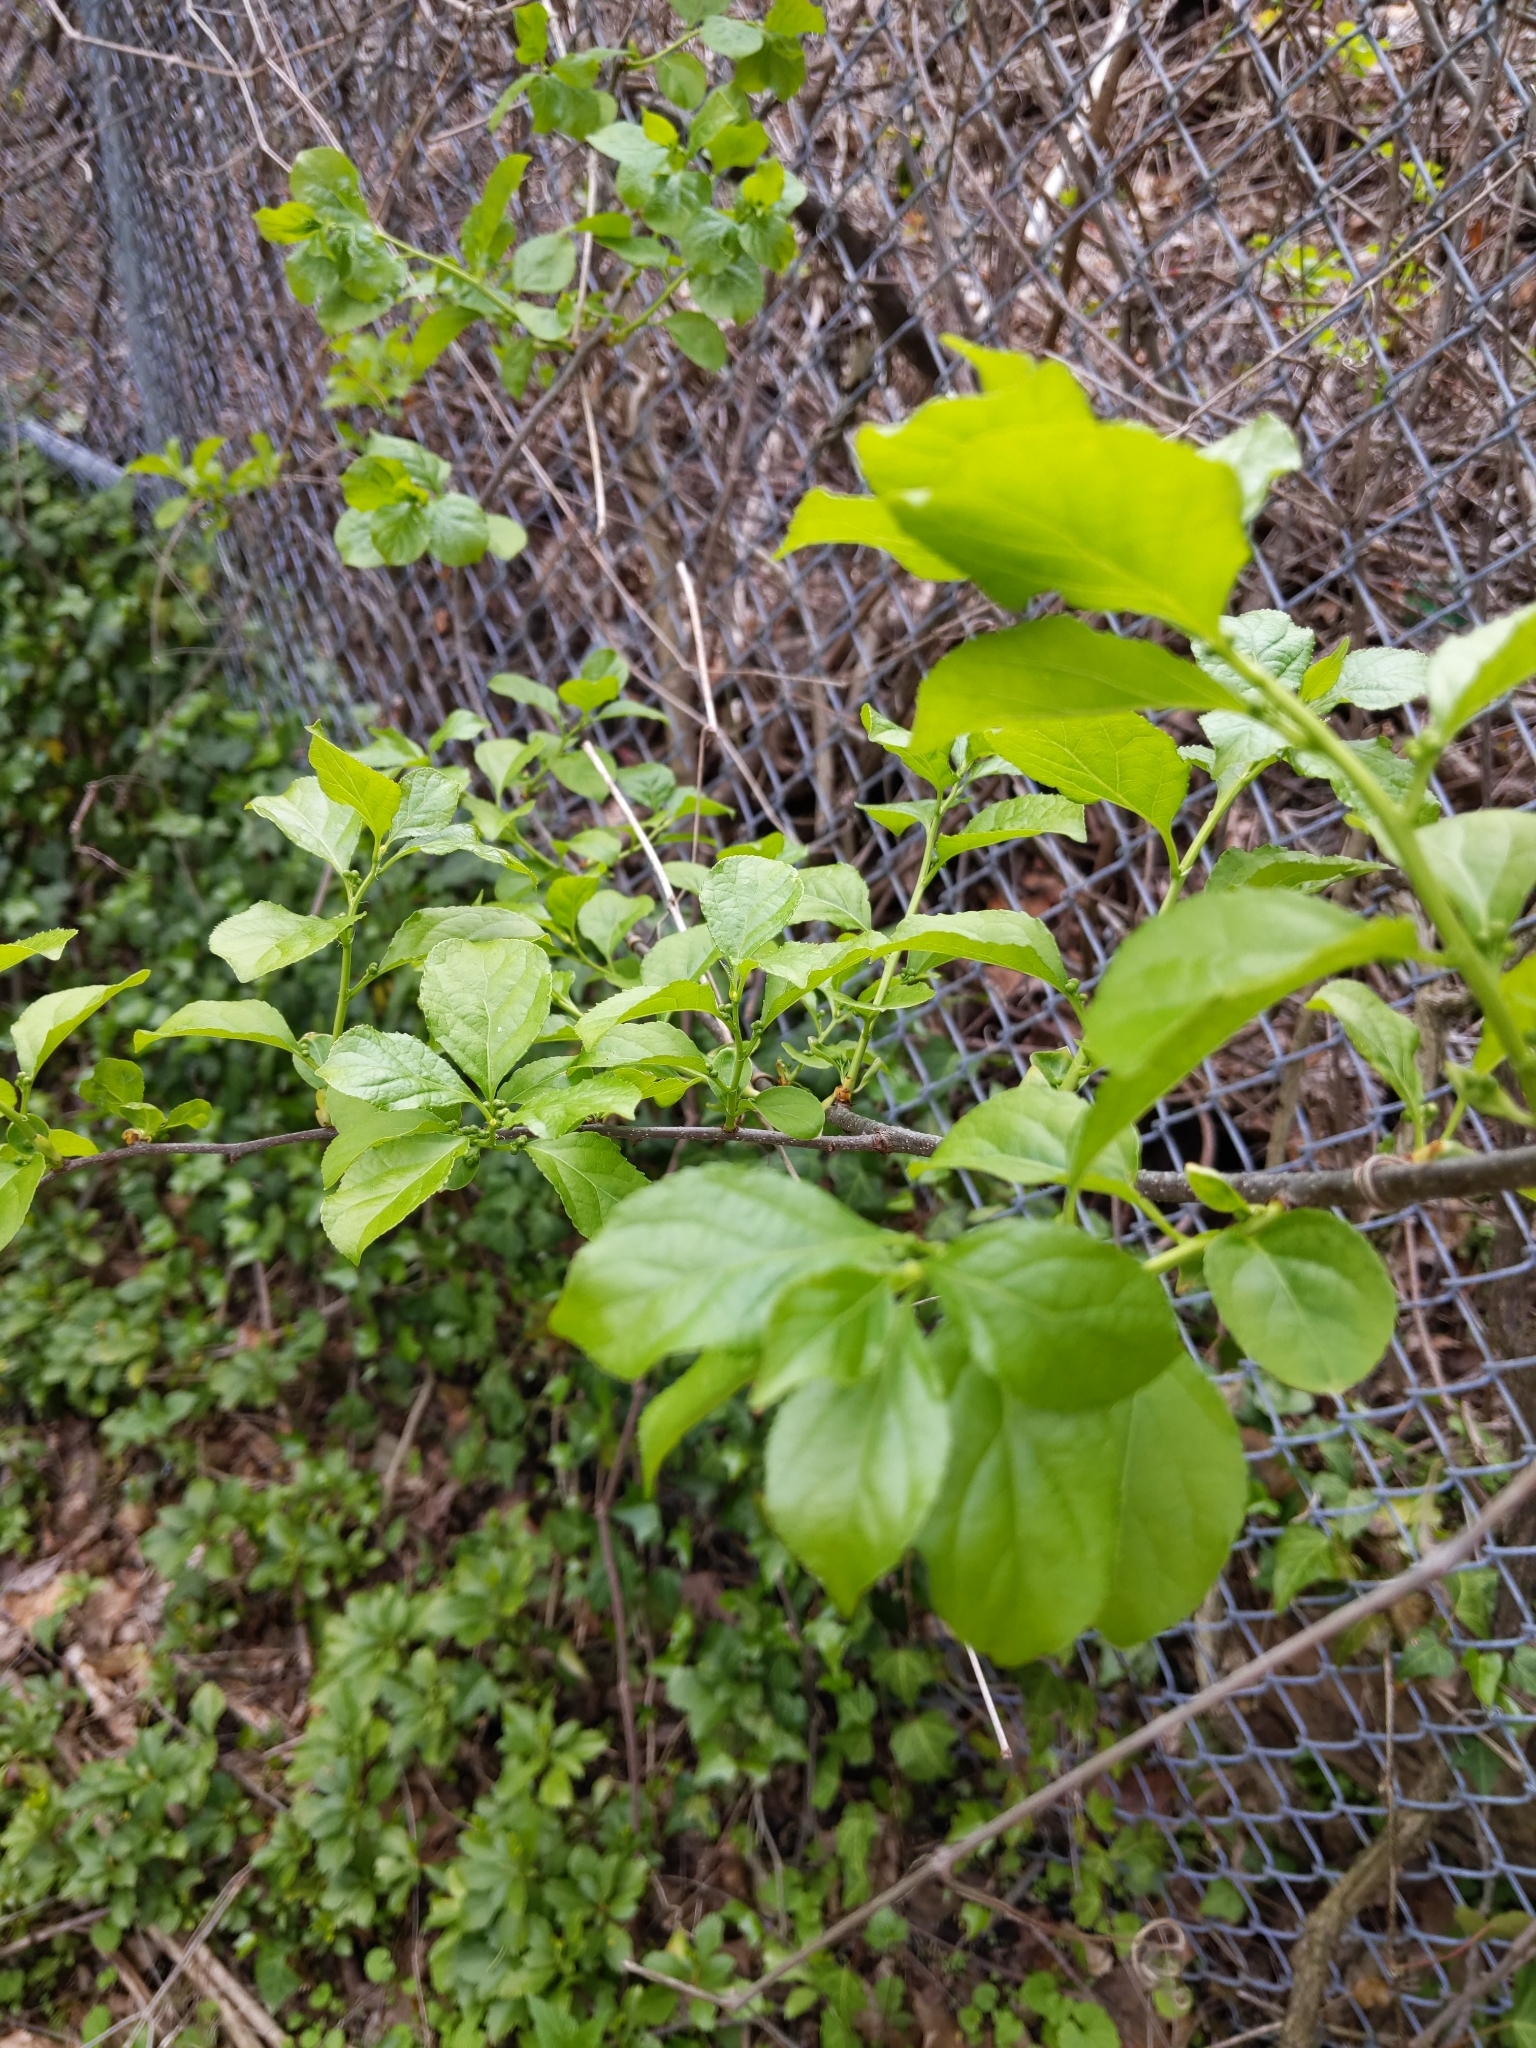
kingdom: Plantae
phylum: Tracheophyta
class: Magnoliopsida
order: Celastrales
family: Celastraceae
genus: Celastrus
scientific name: Celastrus orbiculatus
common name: Oriental bittersweet
